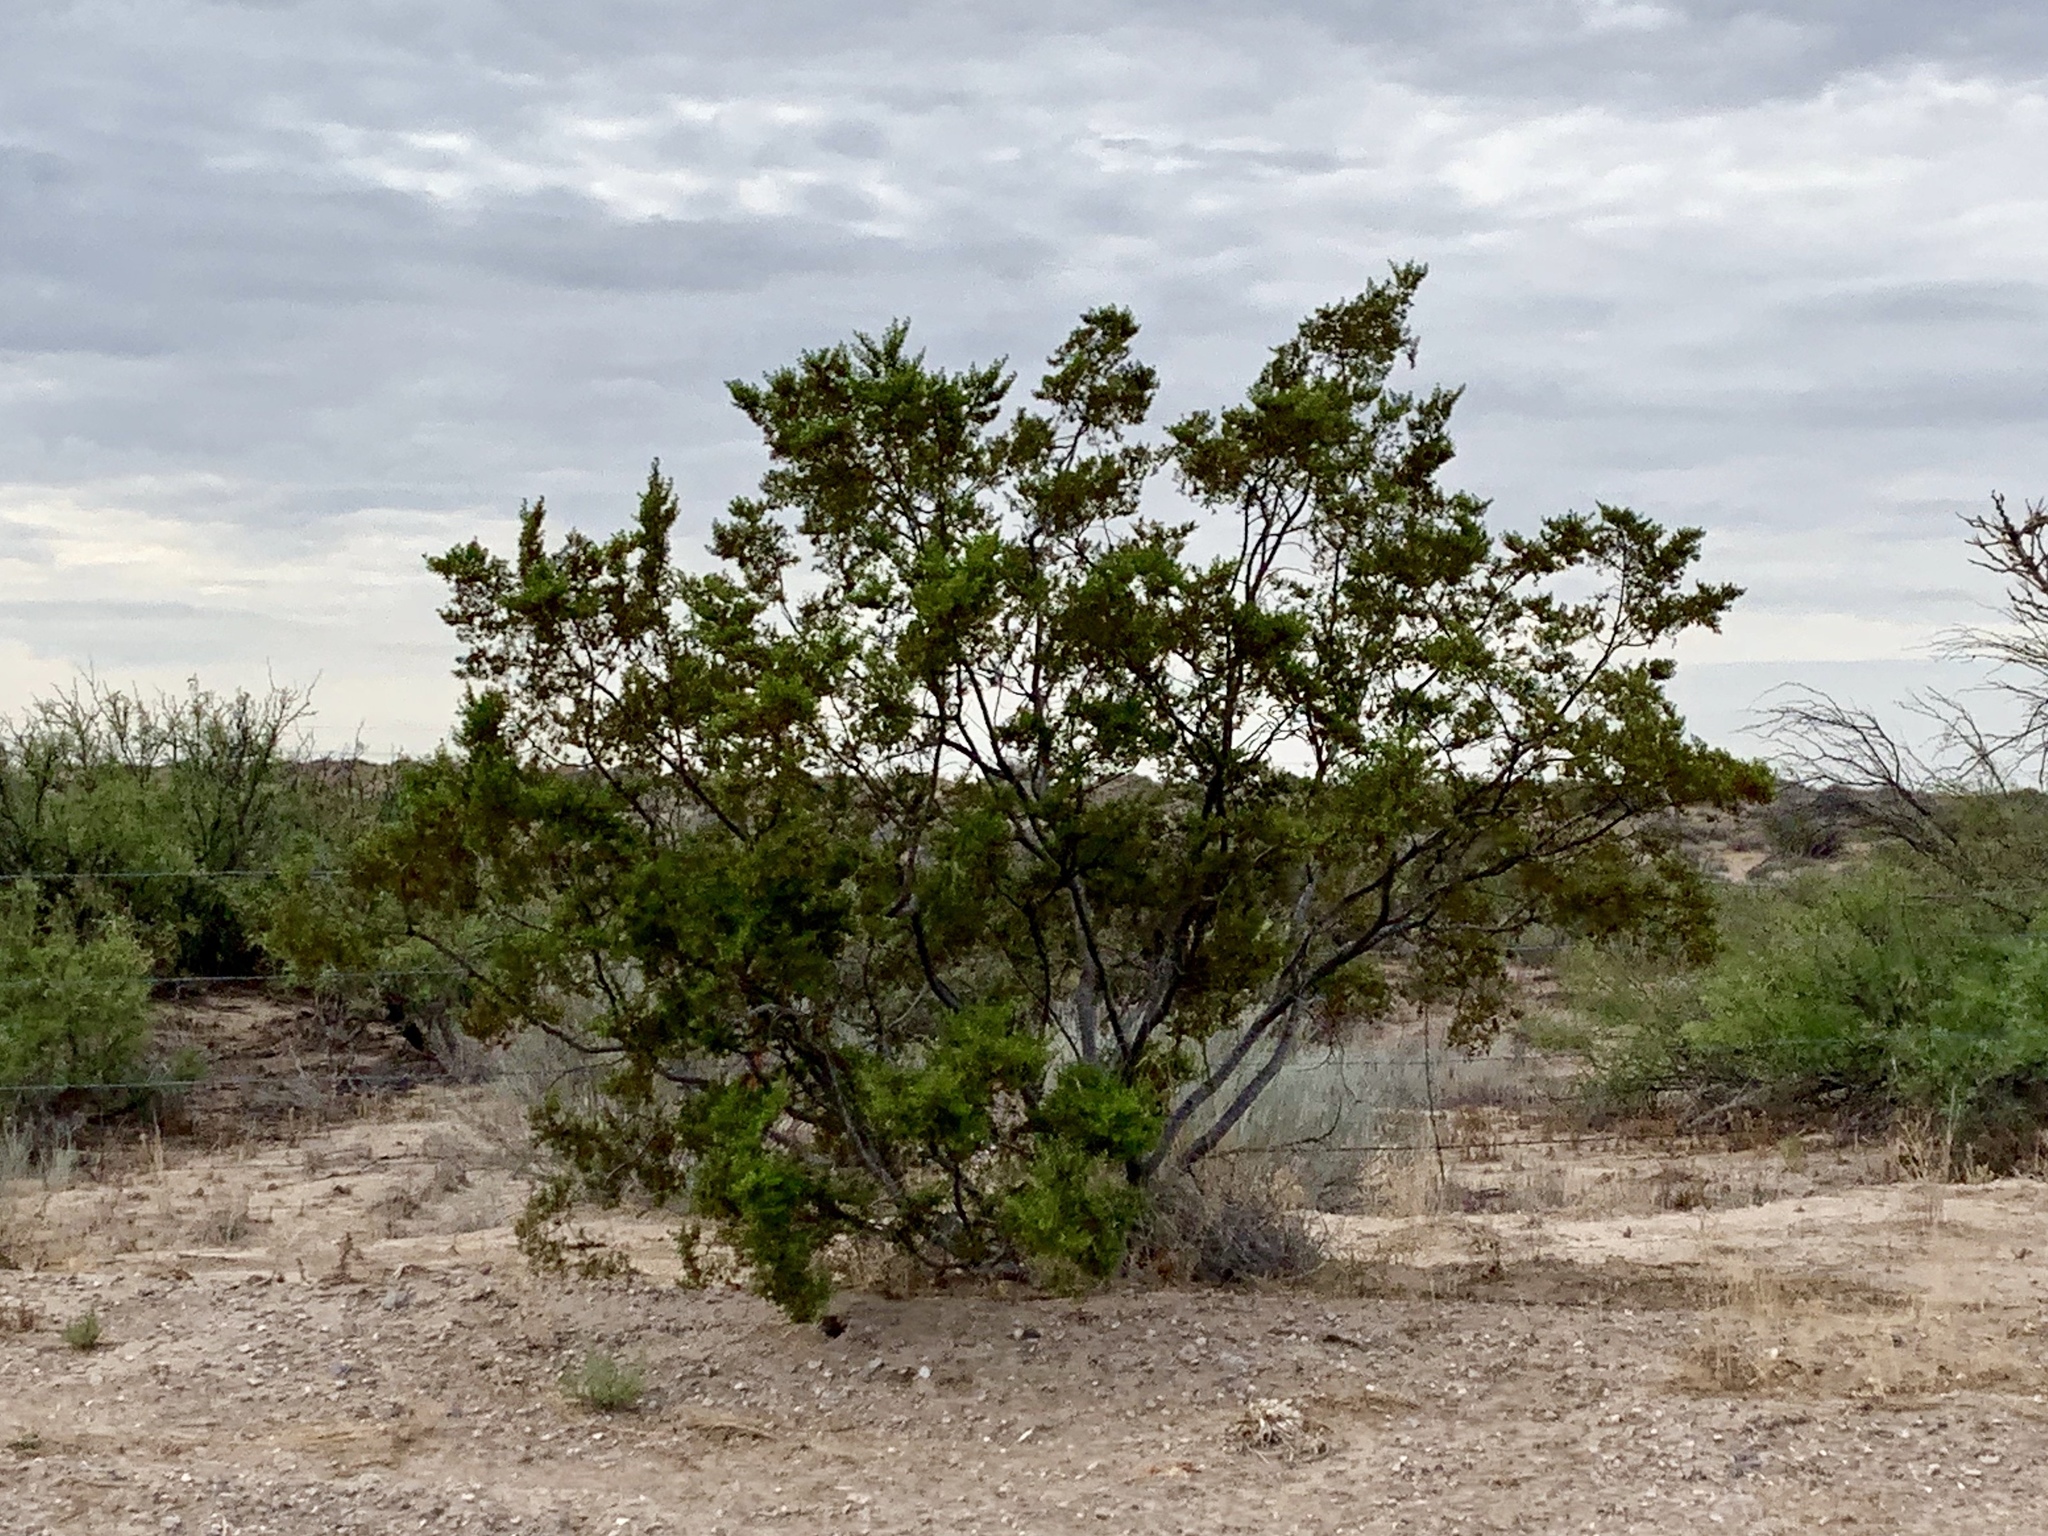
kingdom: Plantae
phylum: Tracheophyta
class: Magnoliopsida
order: Zygophyllales
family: Zygophyllaceae
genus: Larrea
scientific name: Larrea tridentata
